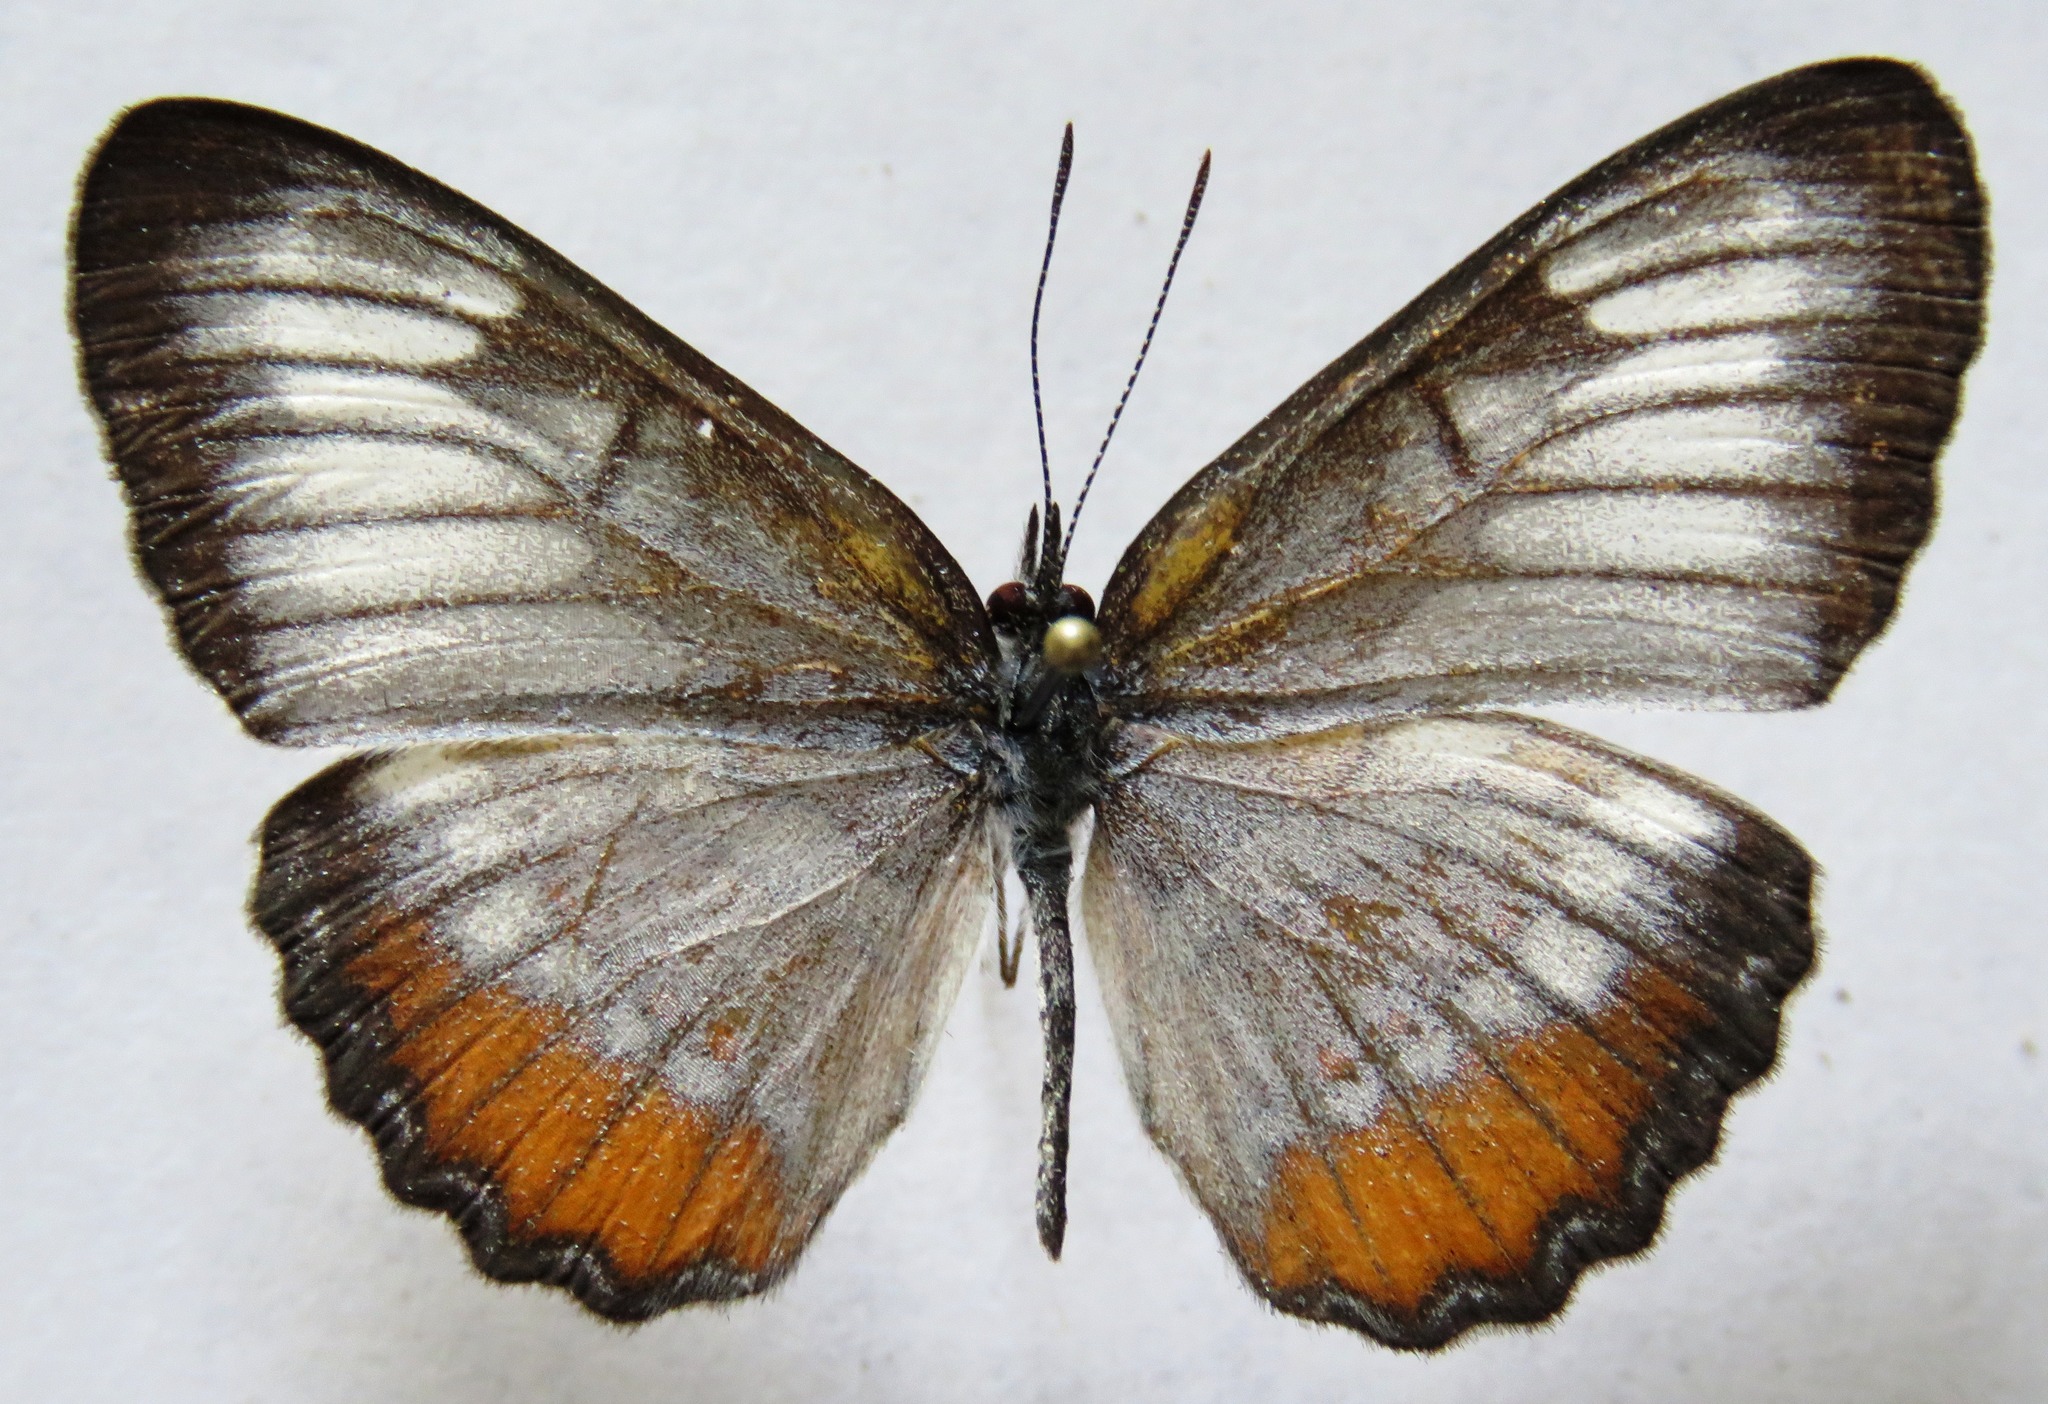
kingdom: Animalia
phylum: Arthropoda
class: Insecta
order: Lepidoptera
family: Nymphalidae
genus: Mestra
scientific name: Mestra amymone
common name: Common mestra
